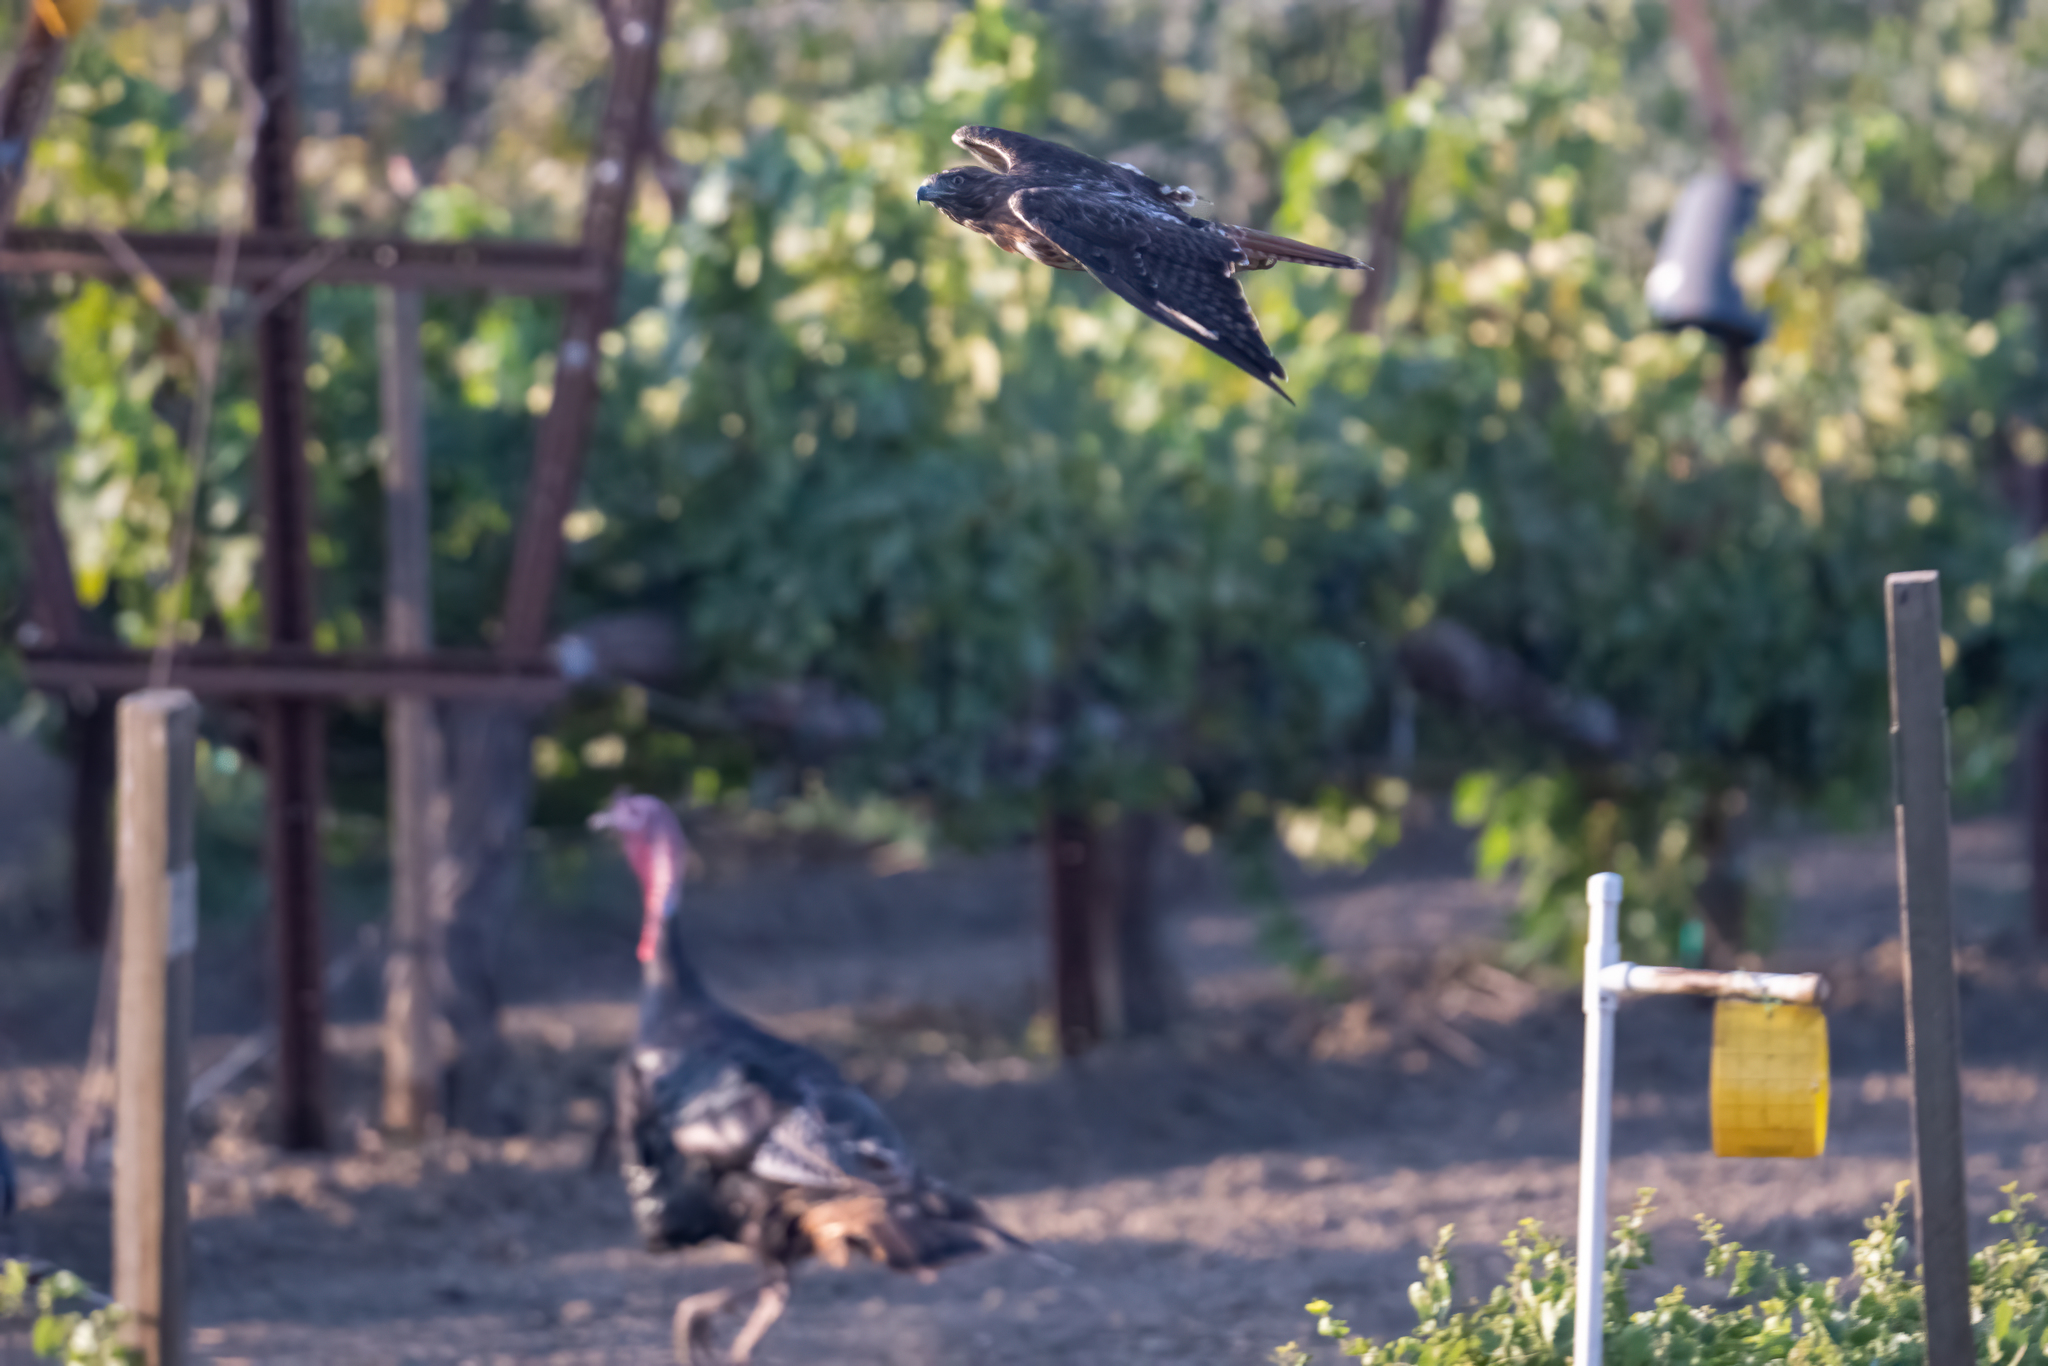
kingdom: Animalia
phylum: Chordata
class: Aves
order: Galliformes
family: Phasianidae
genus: Meleagris
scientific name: Meleagris gallopavo
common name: Wild turkey
